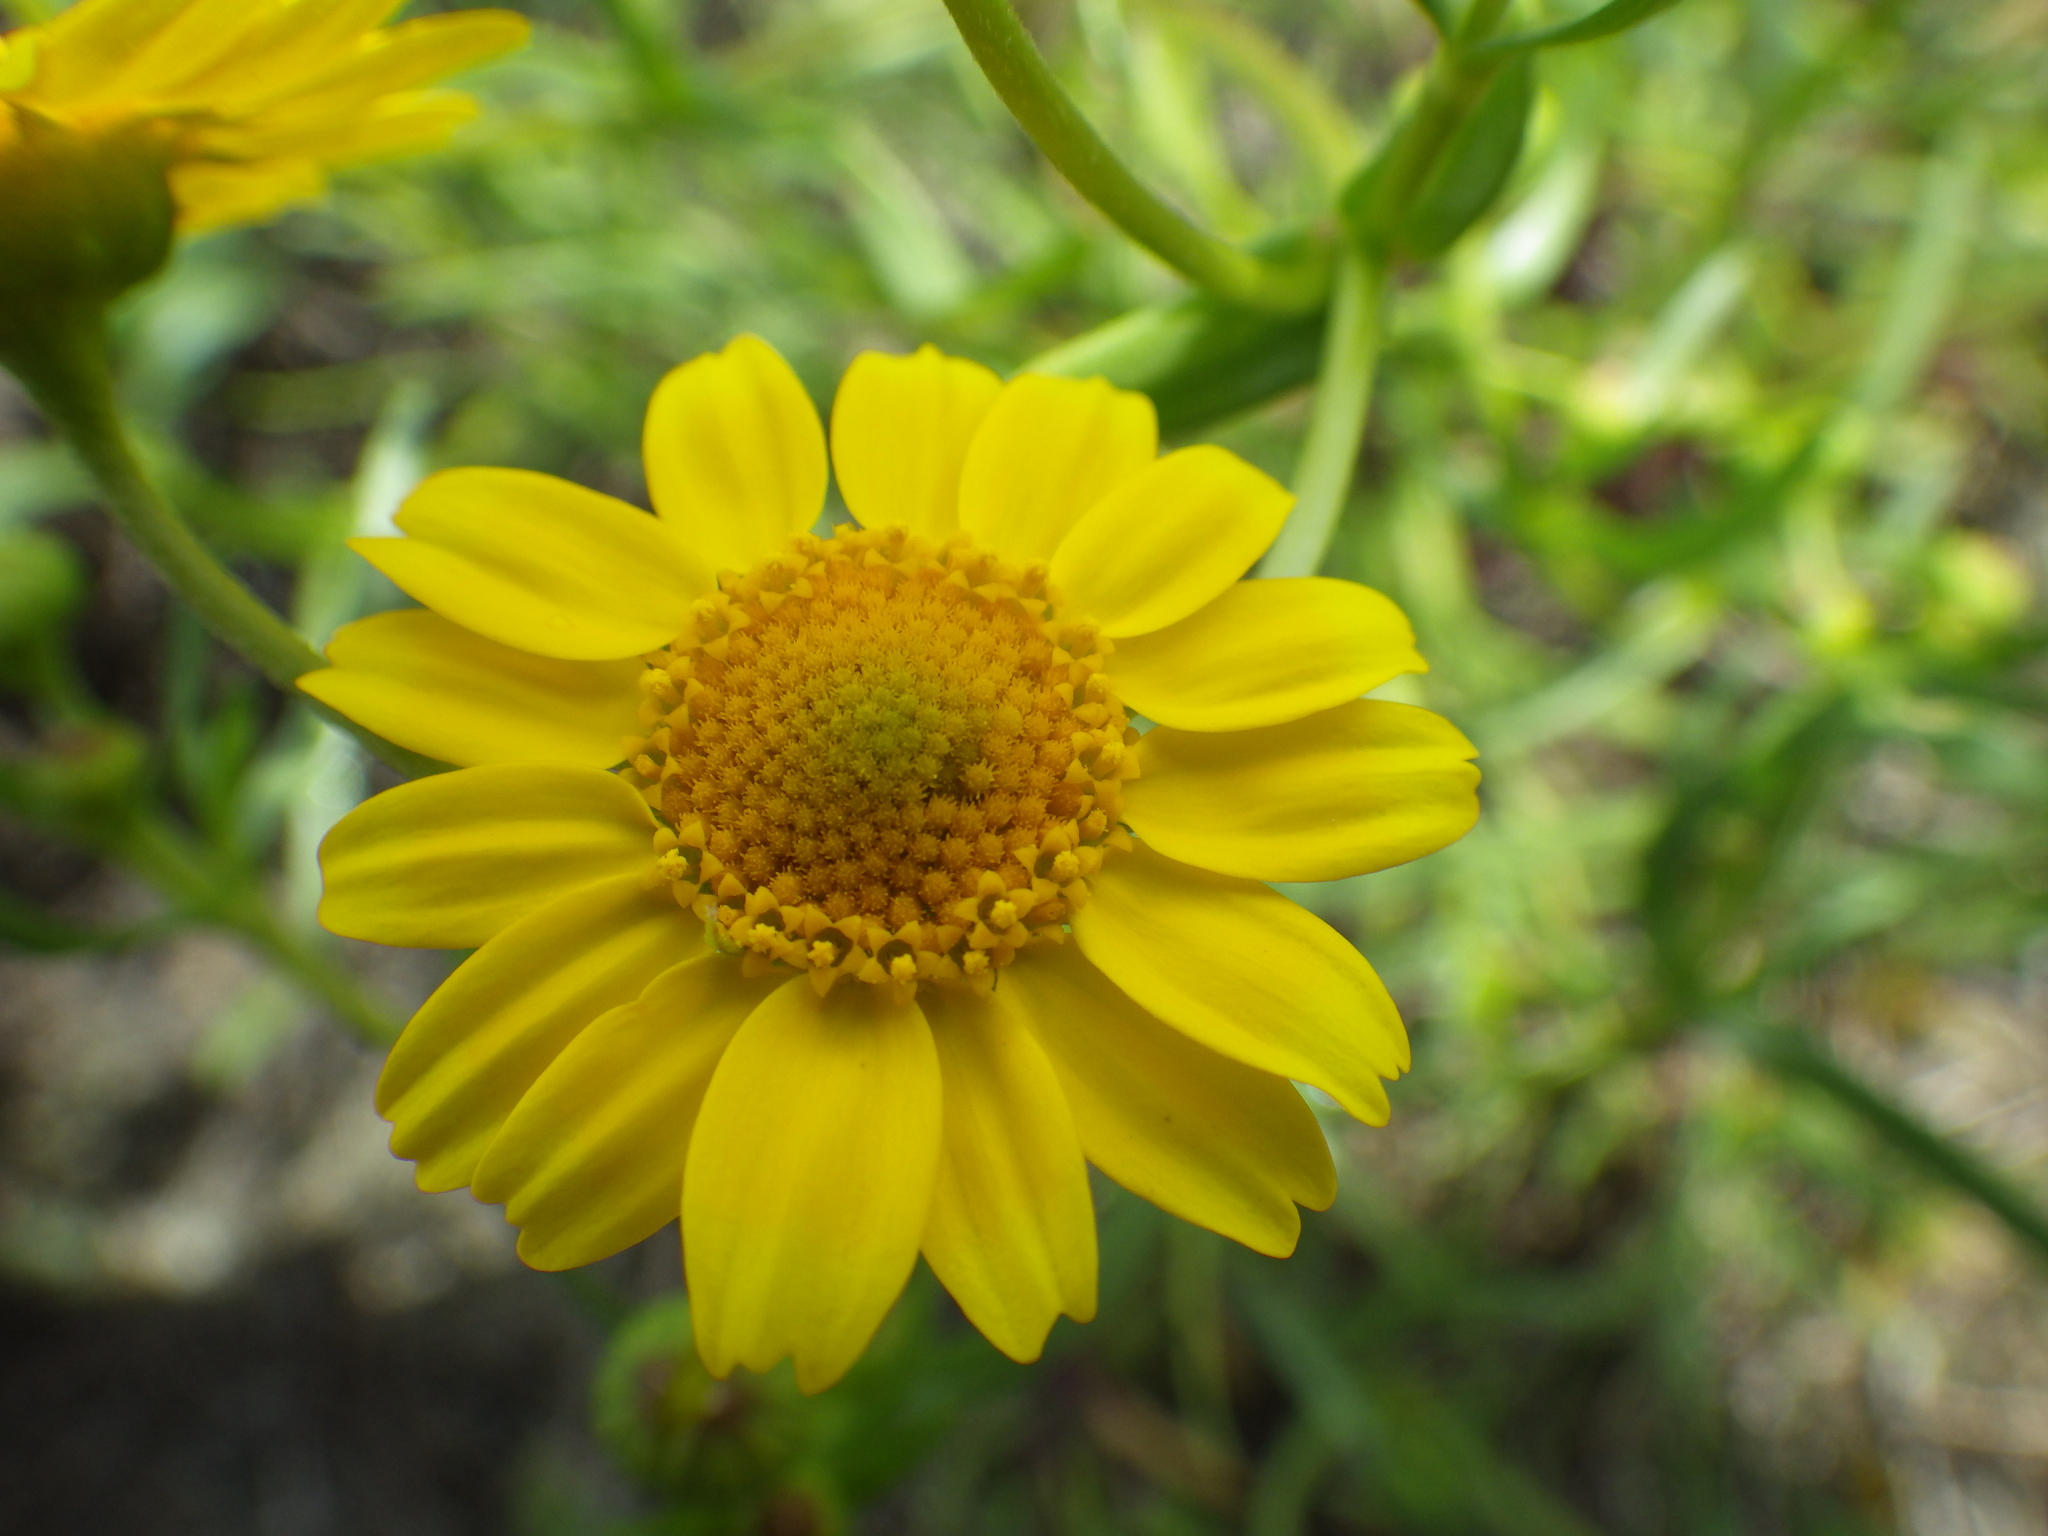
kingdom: Plantae
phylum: Tracheophyta
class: Magnoliopsida
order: Asterales
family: Asteraceae
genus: Lasthenia
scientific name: Lasthenia glabrata
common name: Yellow-ray lasthenia
